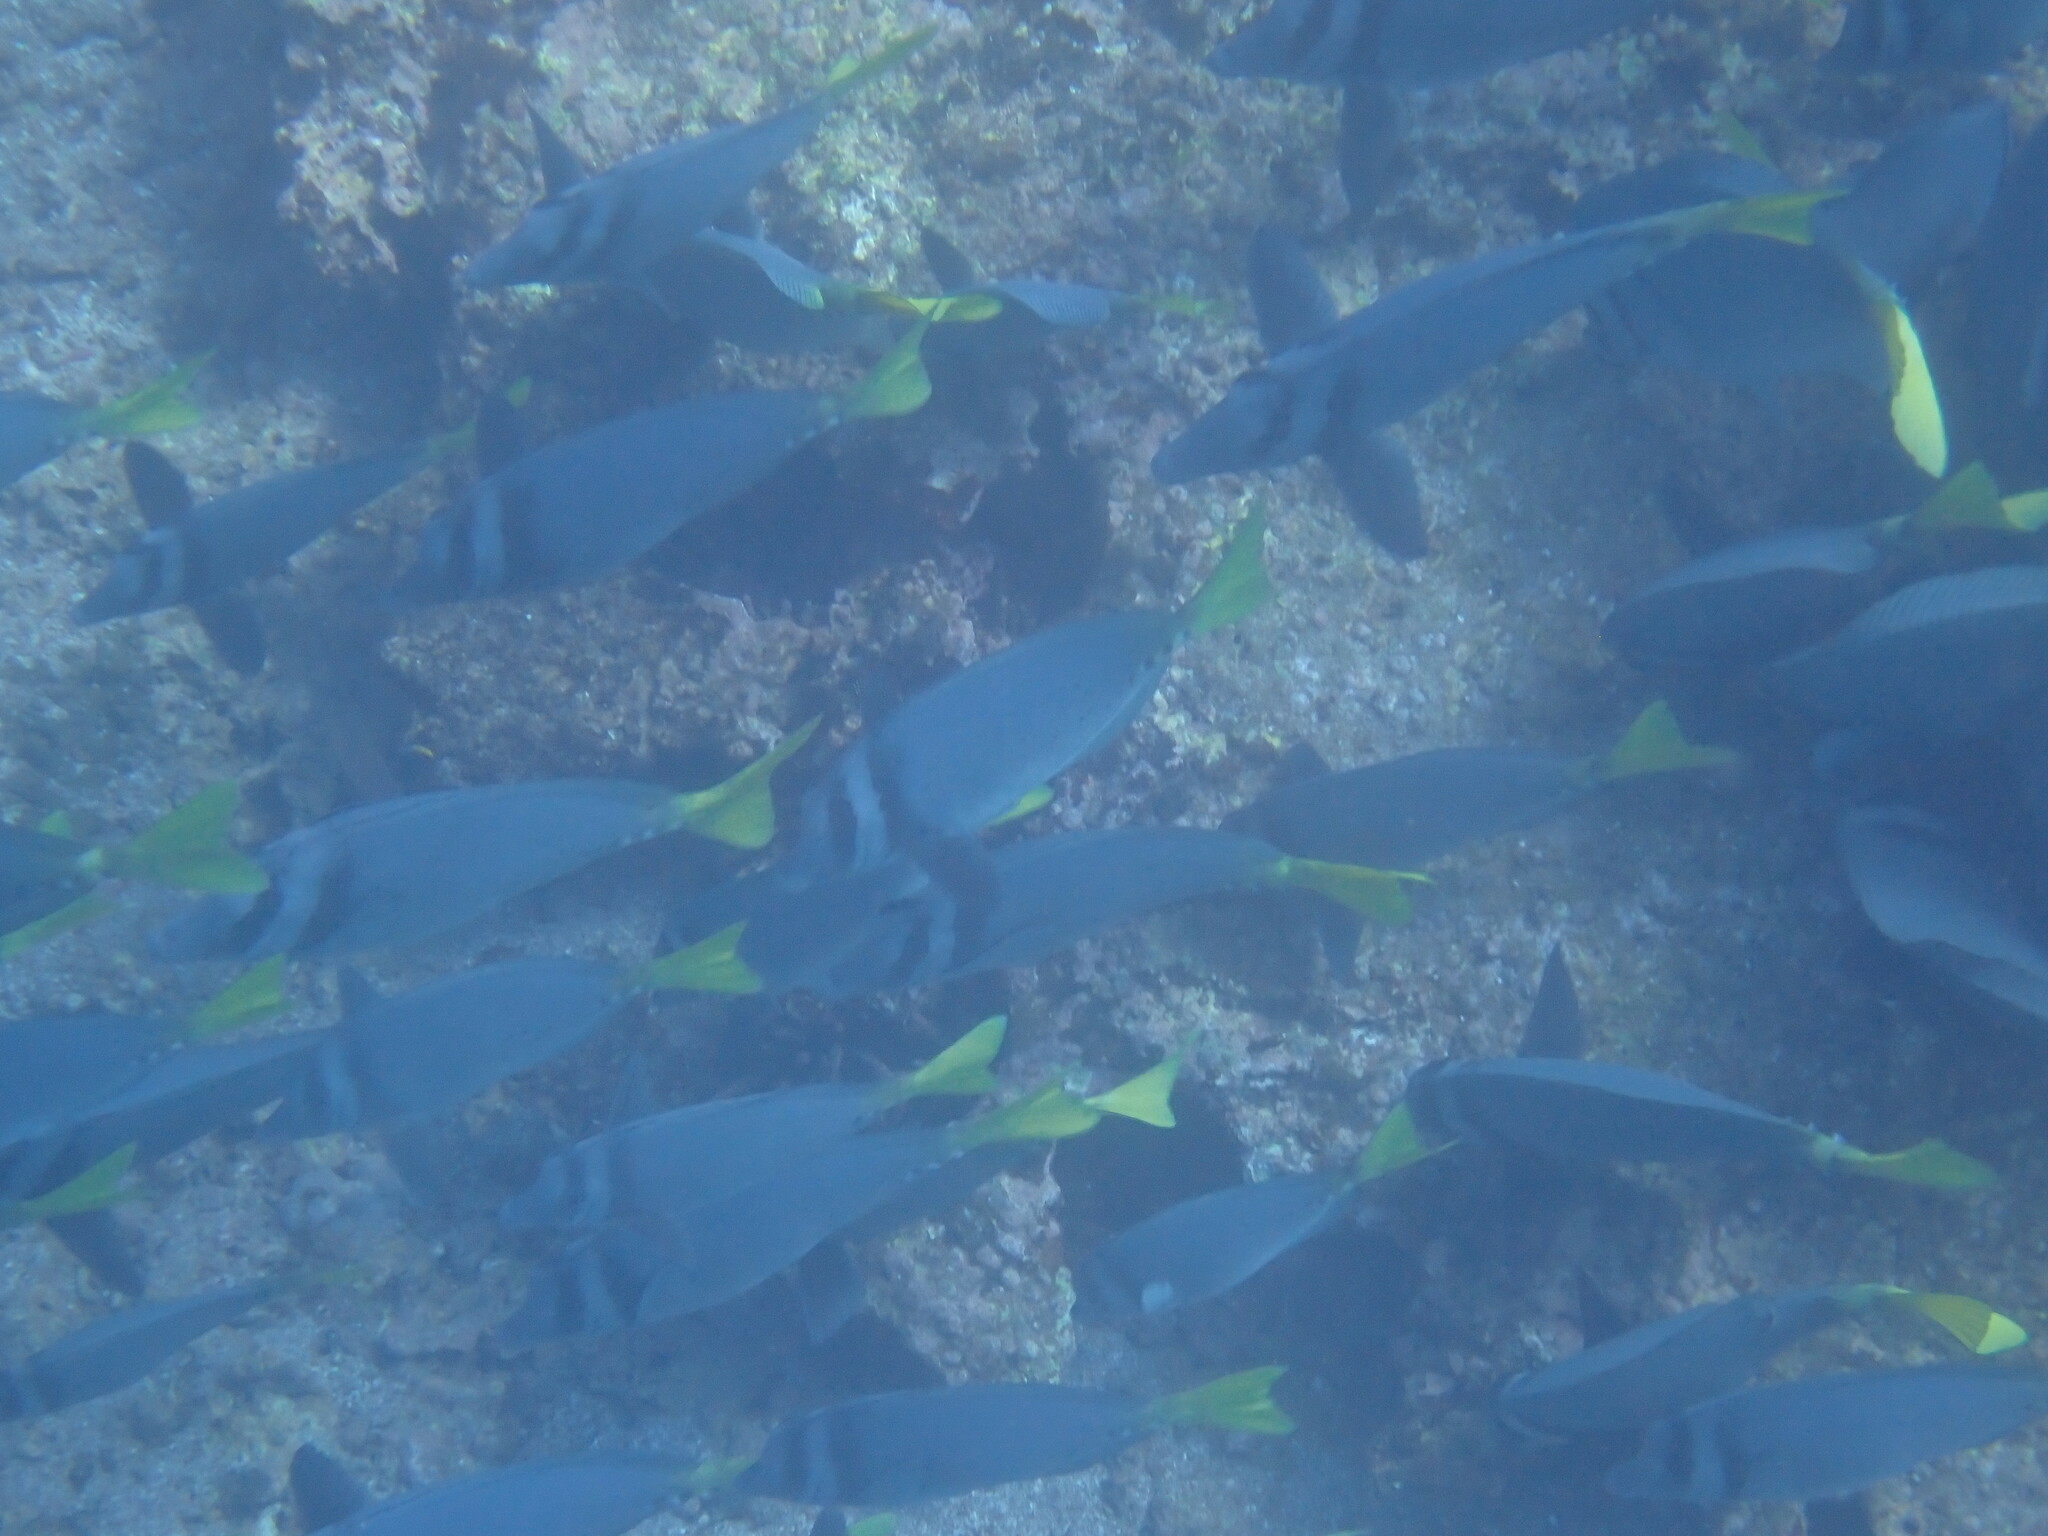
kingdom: Animalia
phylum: Chordata
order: Perciformes
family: Acanthuridae
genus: Prionurus
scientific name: Prionurus laticlavius
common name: Razor surgeonfish
